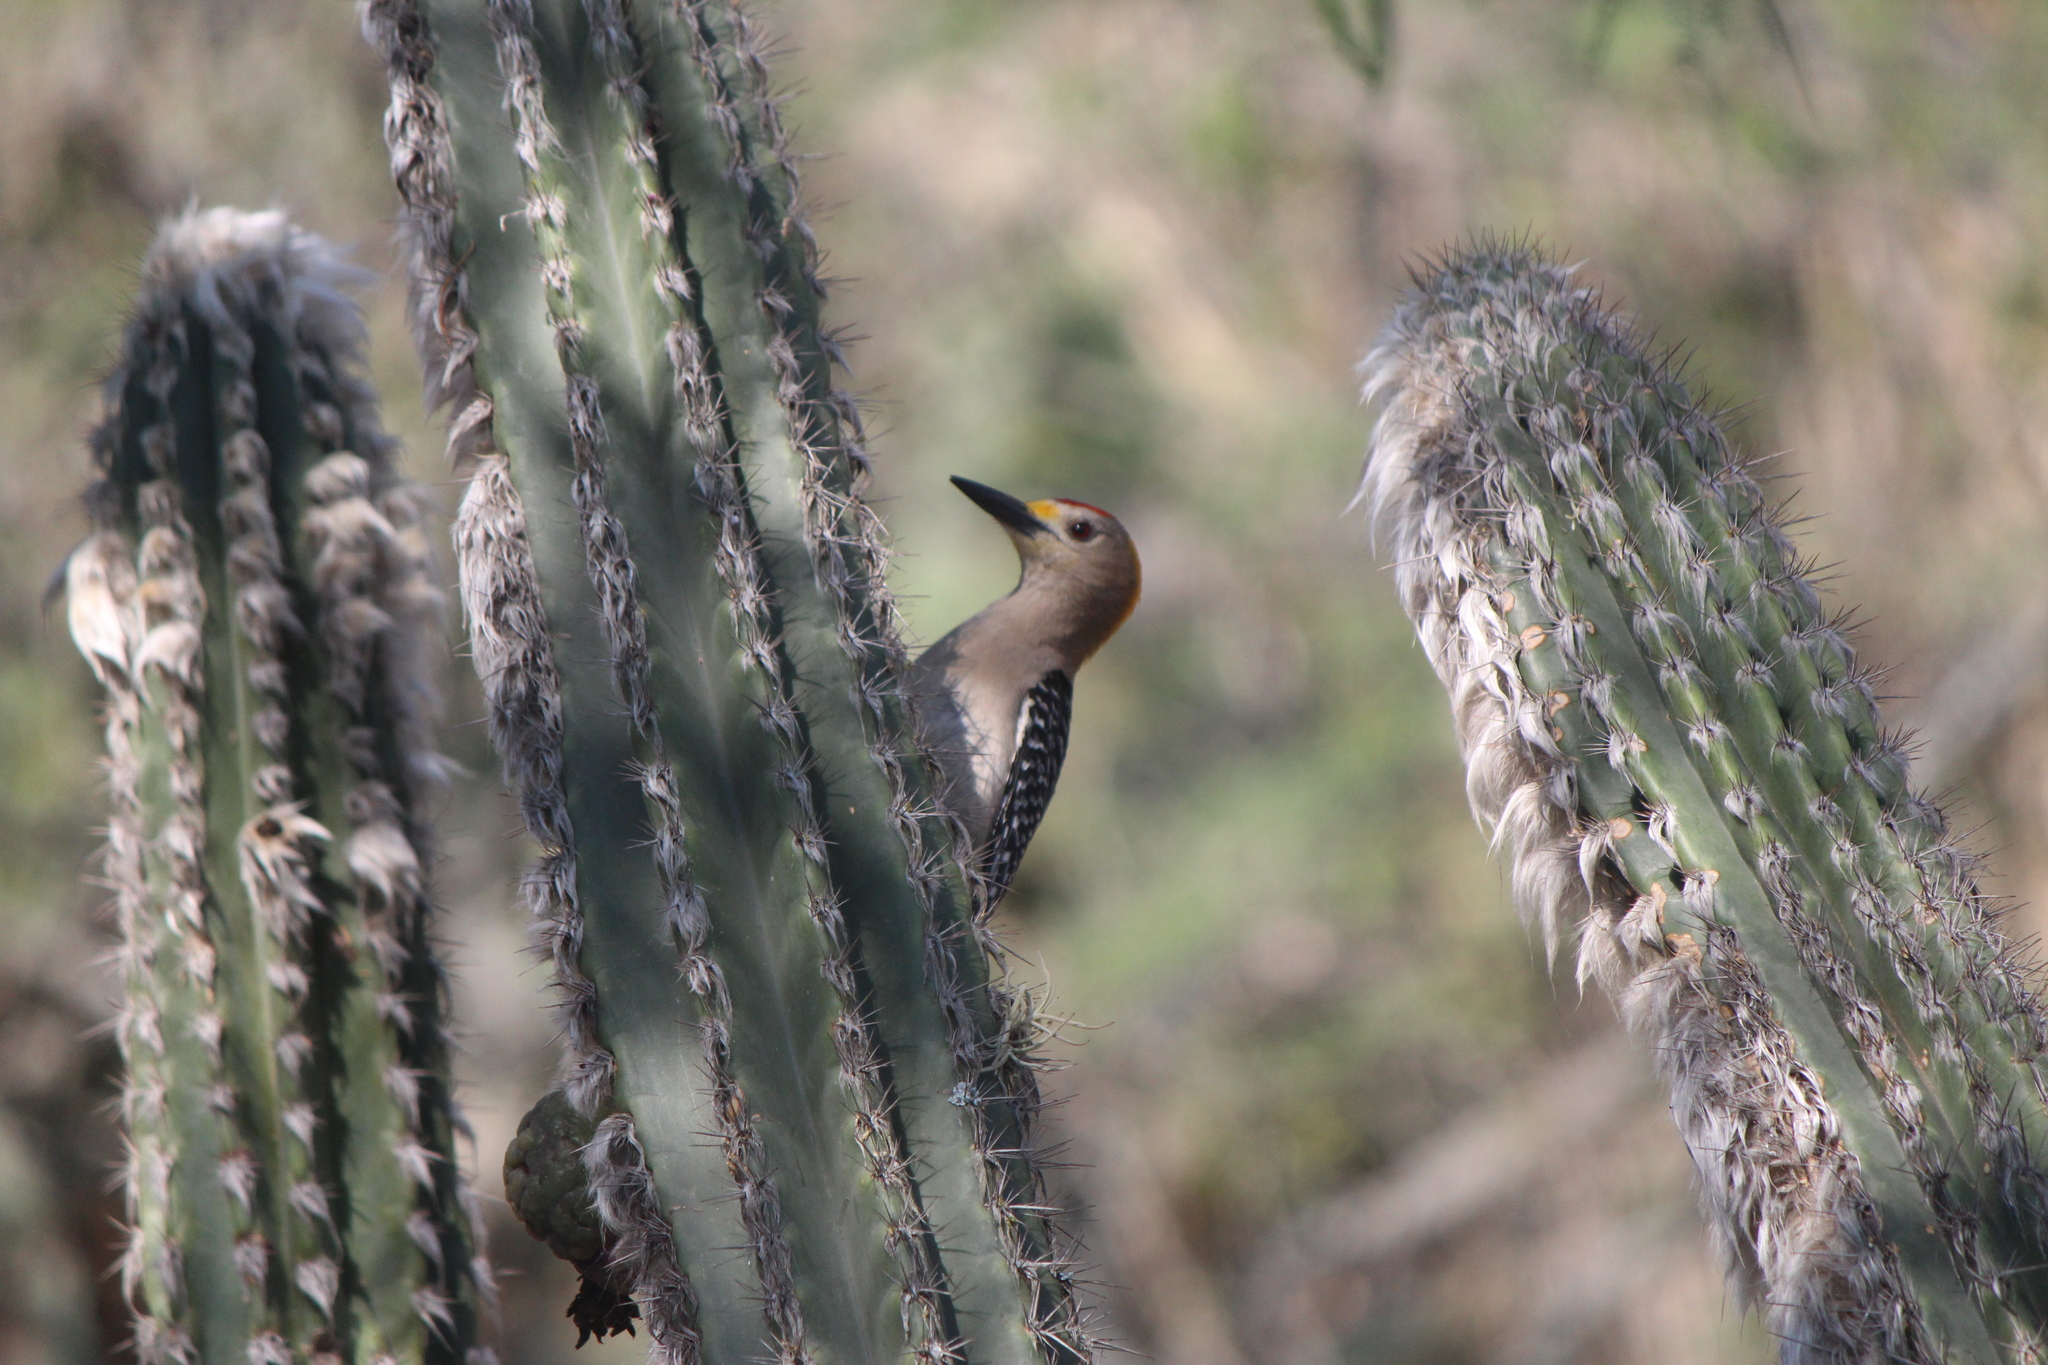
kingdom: Animalia
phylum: Chordata
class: Aves
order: Piciformes
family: Picidae
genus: Melanerpes
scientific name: Melanerpes aurifrons
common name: Golden-fronted woodpecker
